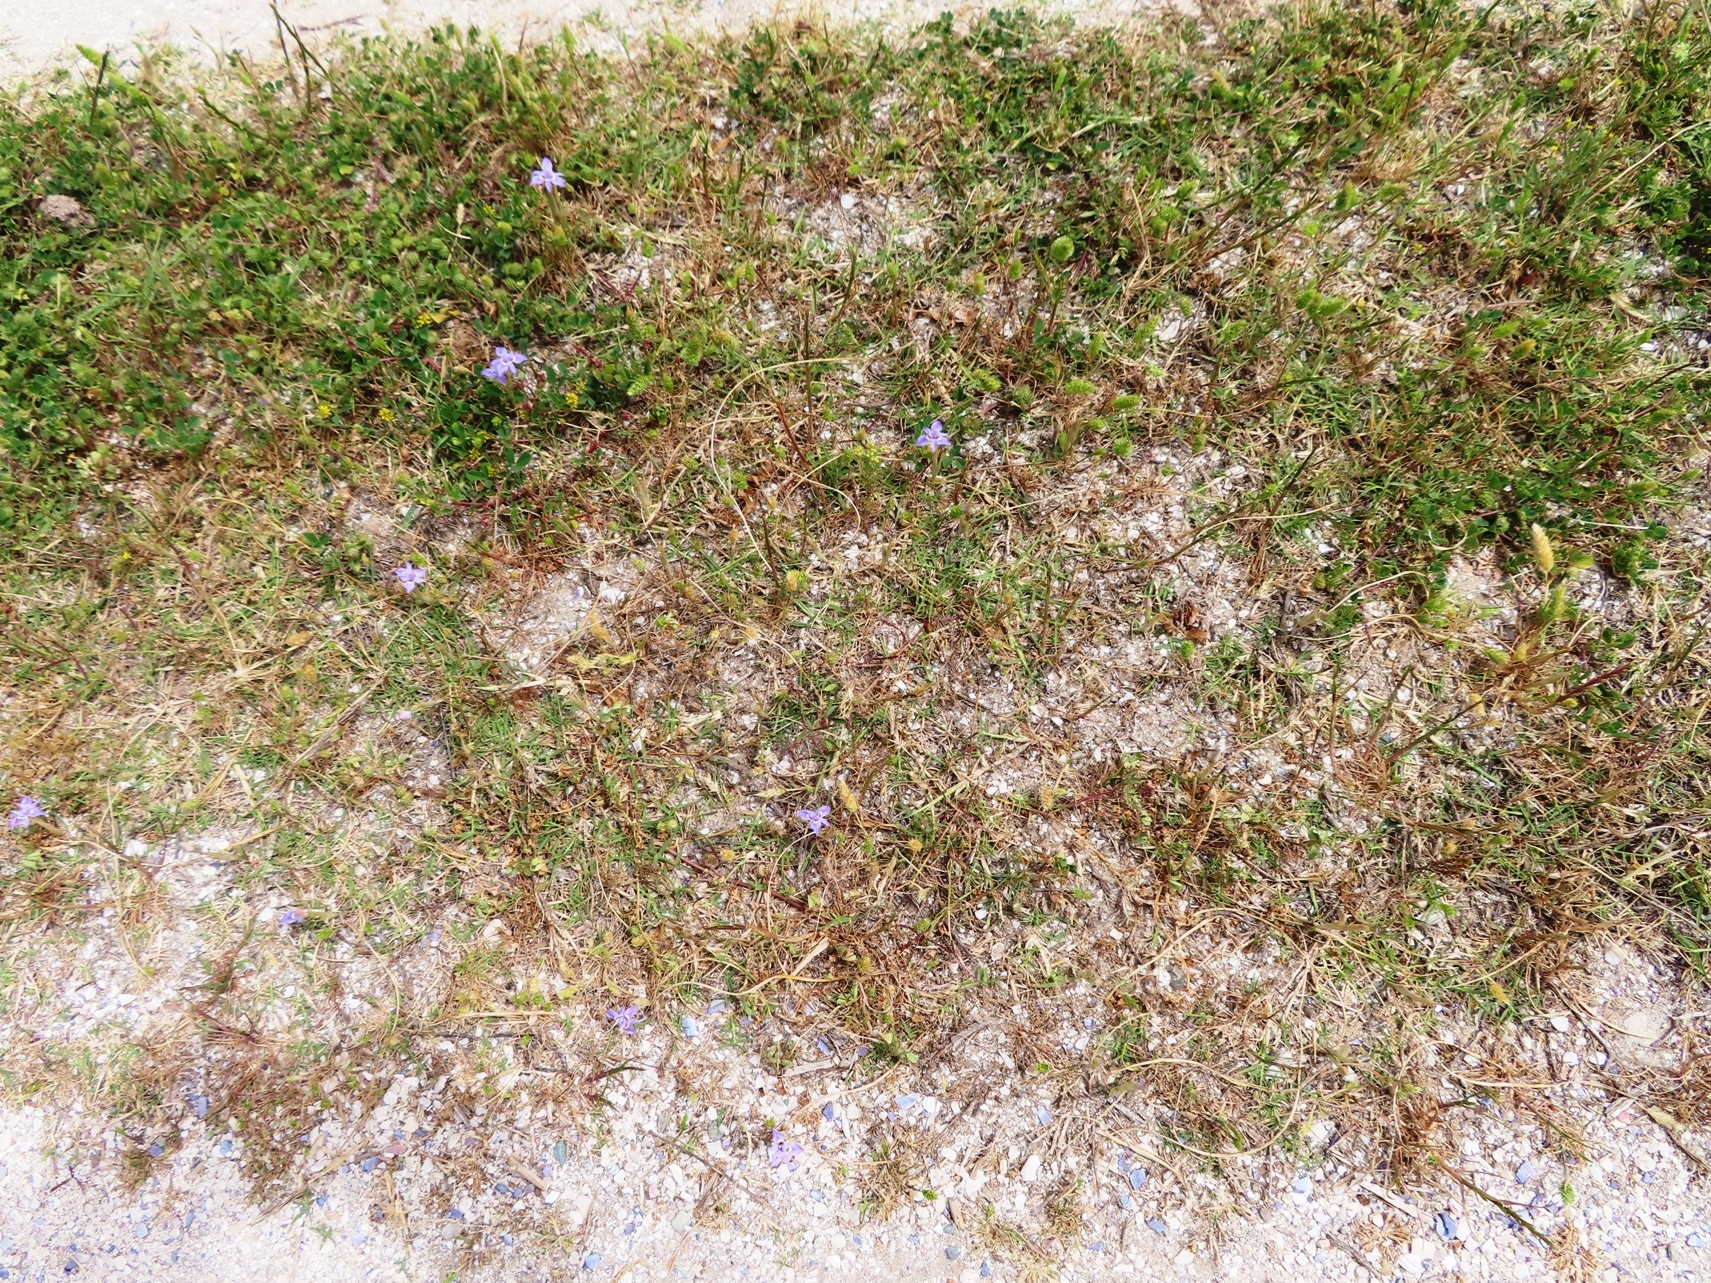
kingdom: Plantae
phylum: Tracheophyta
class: Liliopsida
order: Asparagales
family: Iridaceae
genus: Moraea
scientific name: Moraea setifolia
